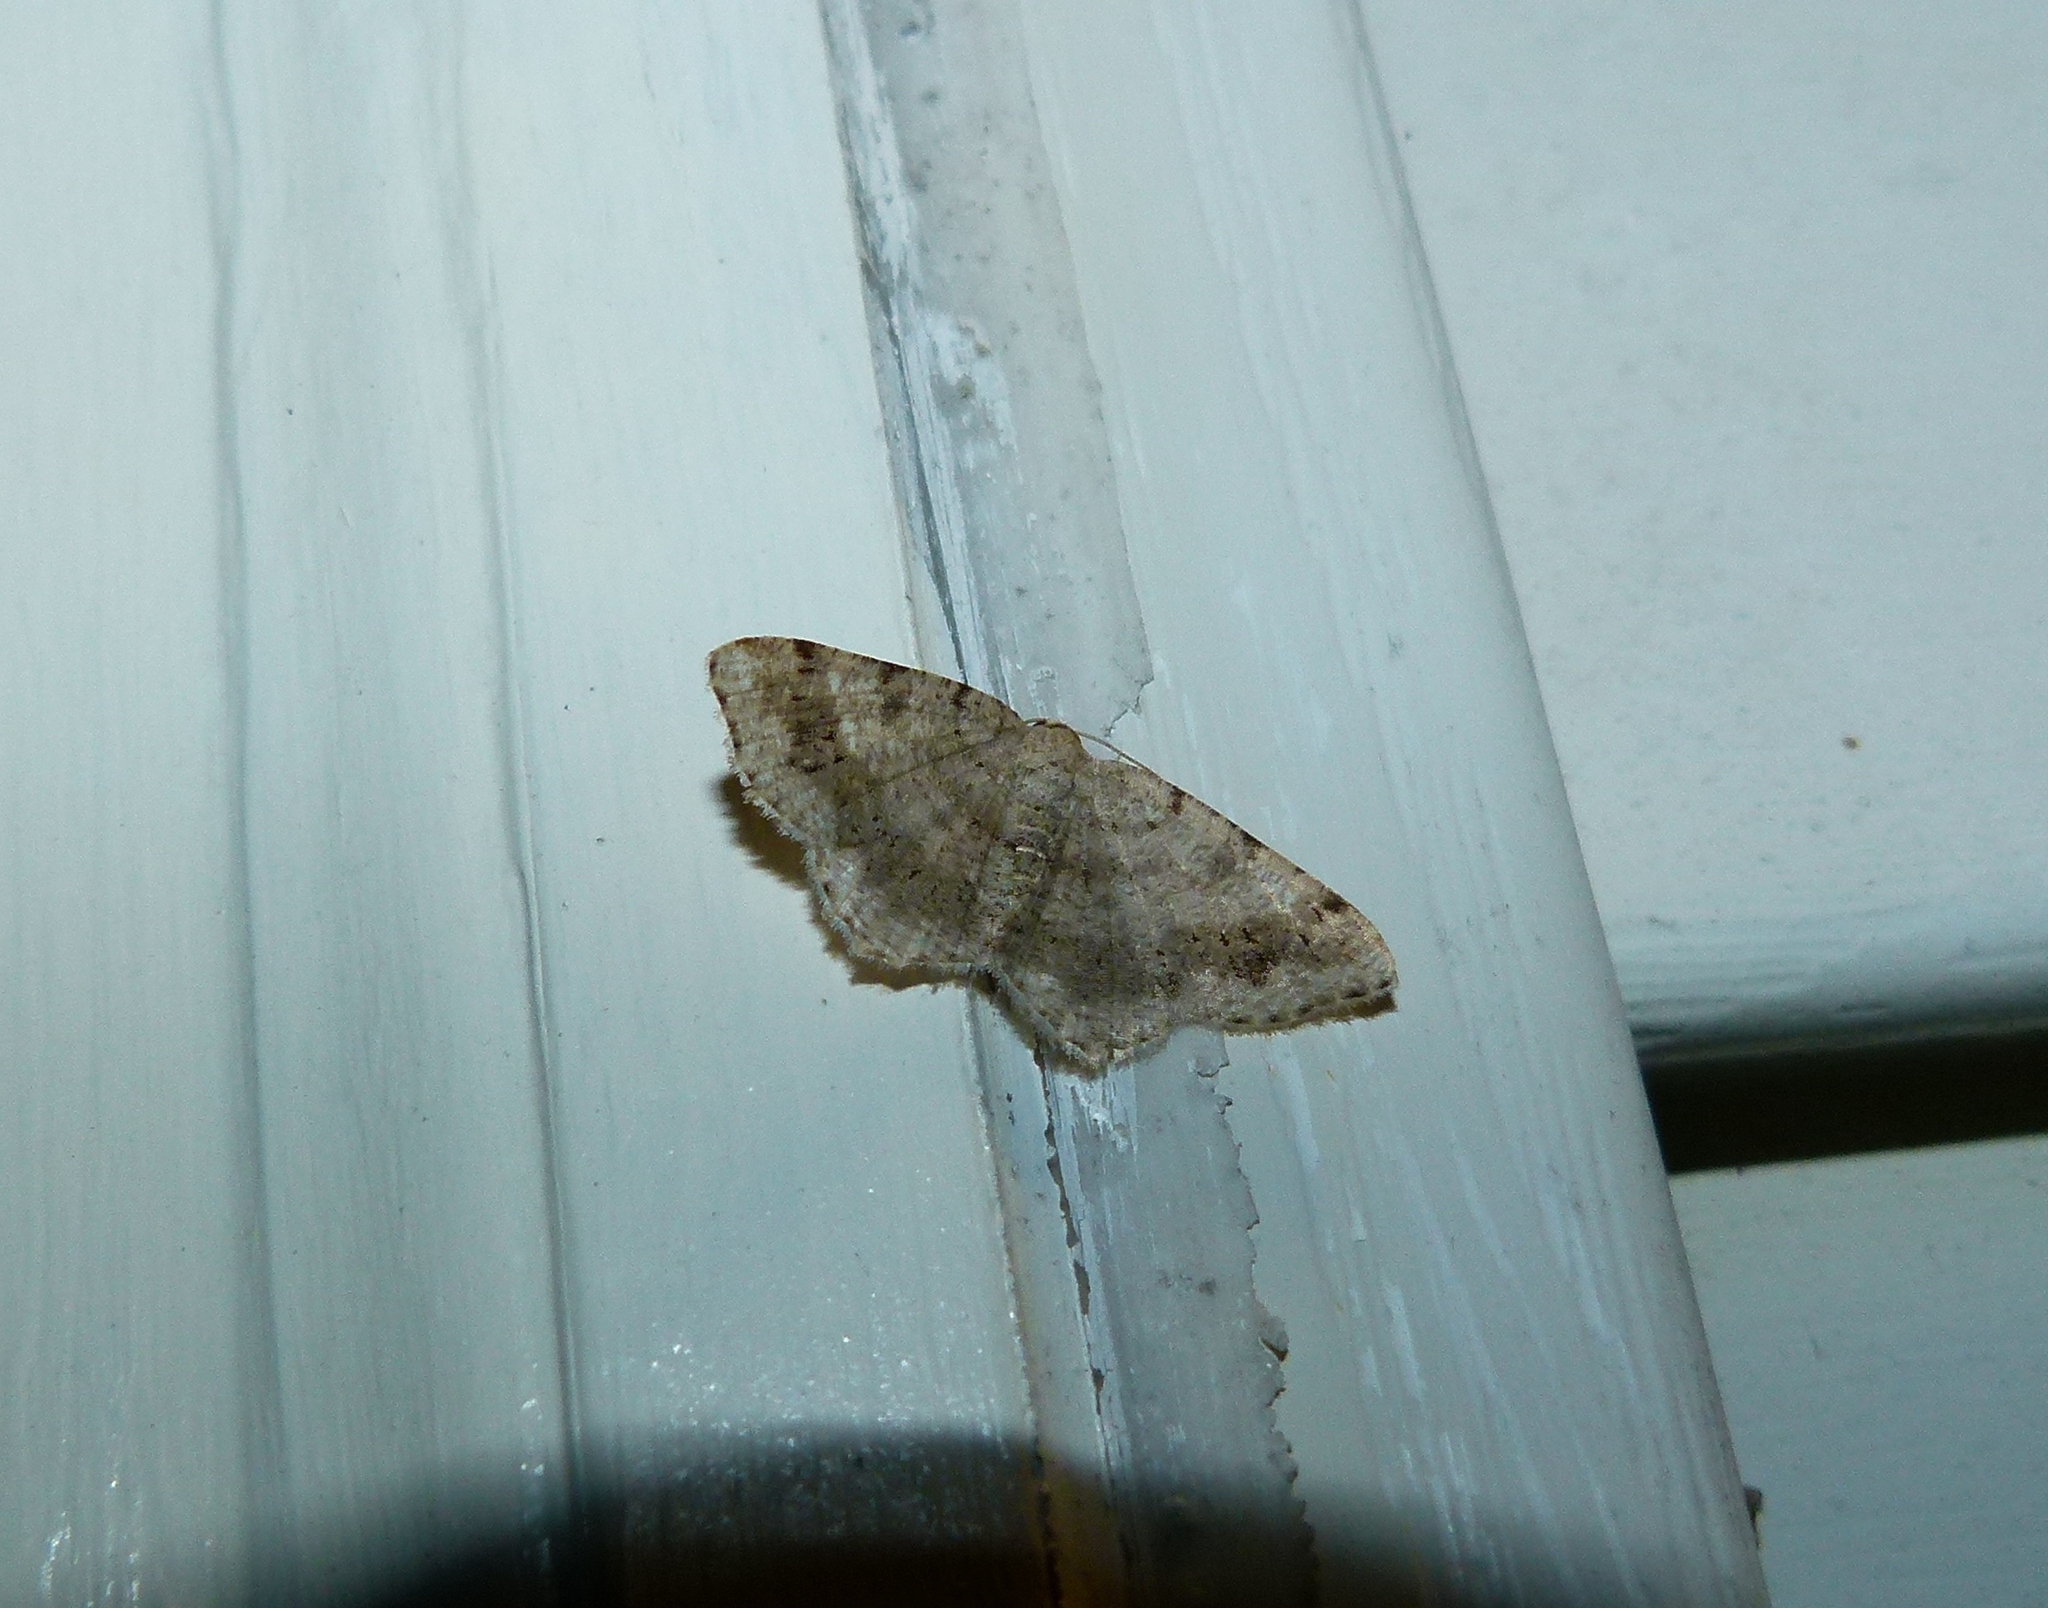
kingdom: Animalia
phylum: Arthropoda
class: Insecta
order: Lepidoptera
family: Geometridae
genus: Digrammia
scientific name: Digrammia ocellinata
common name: Faint-spotted angle
